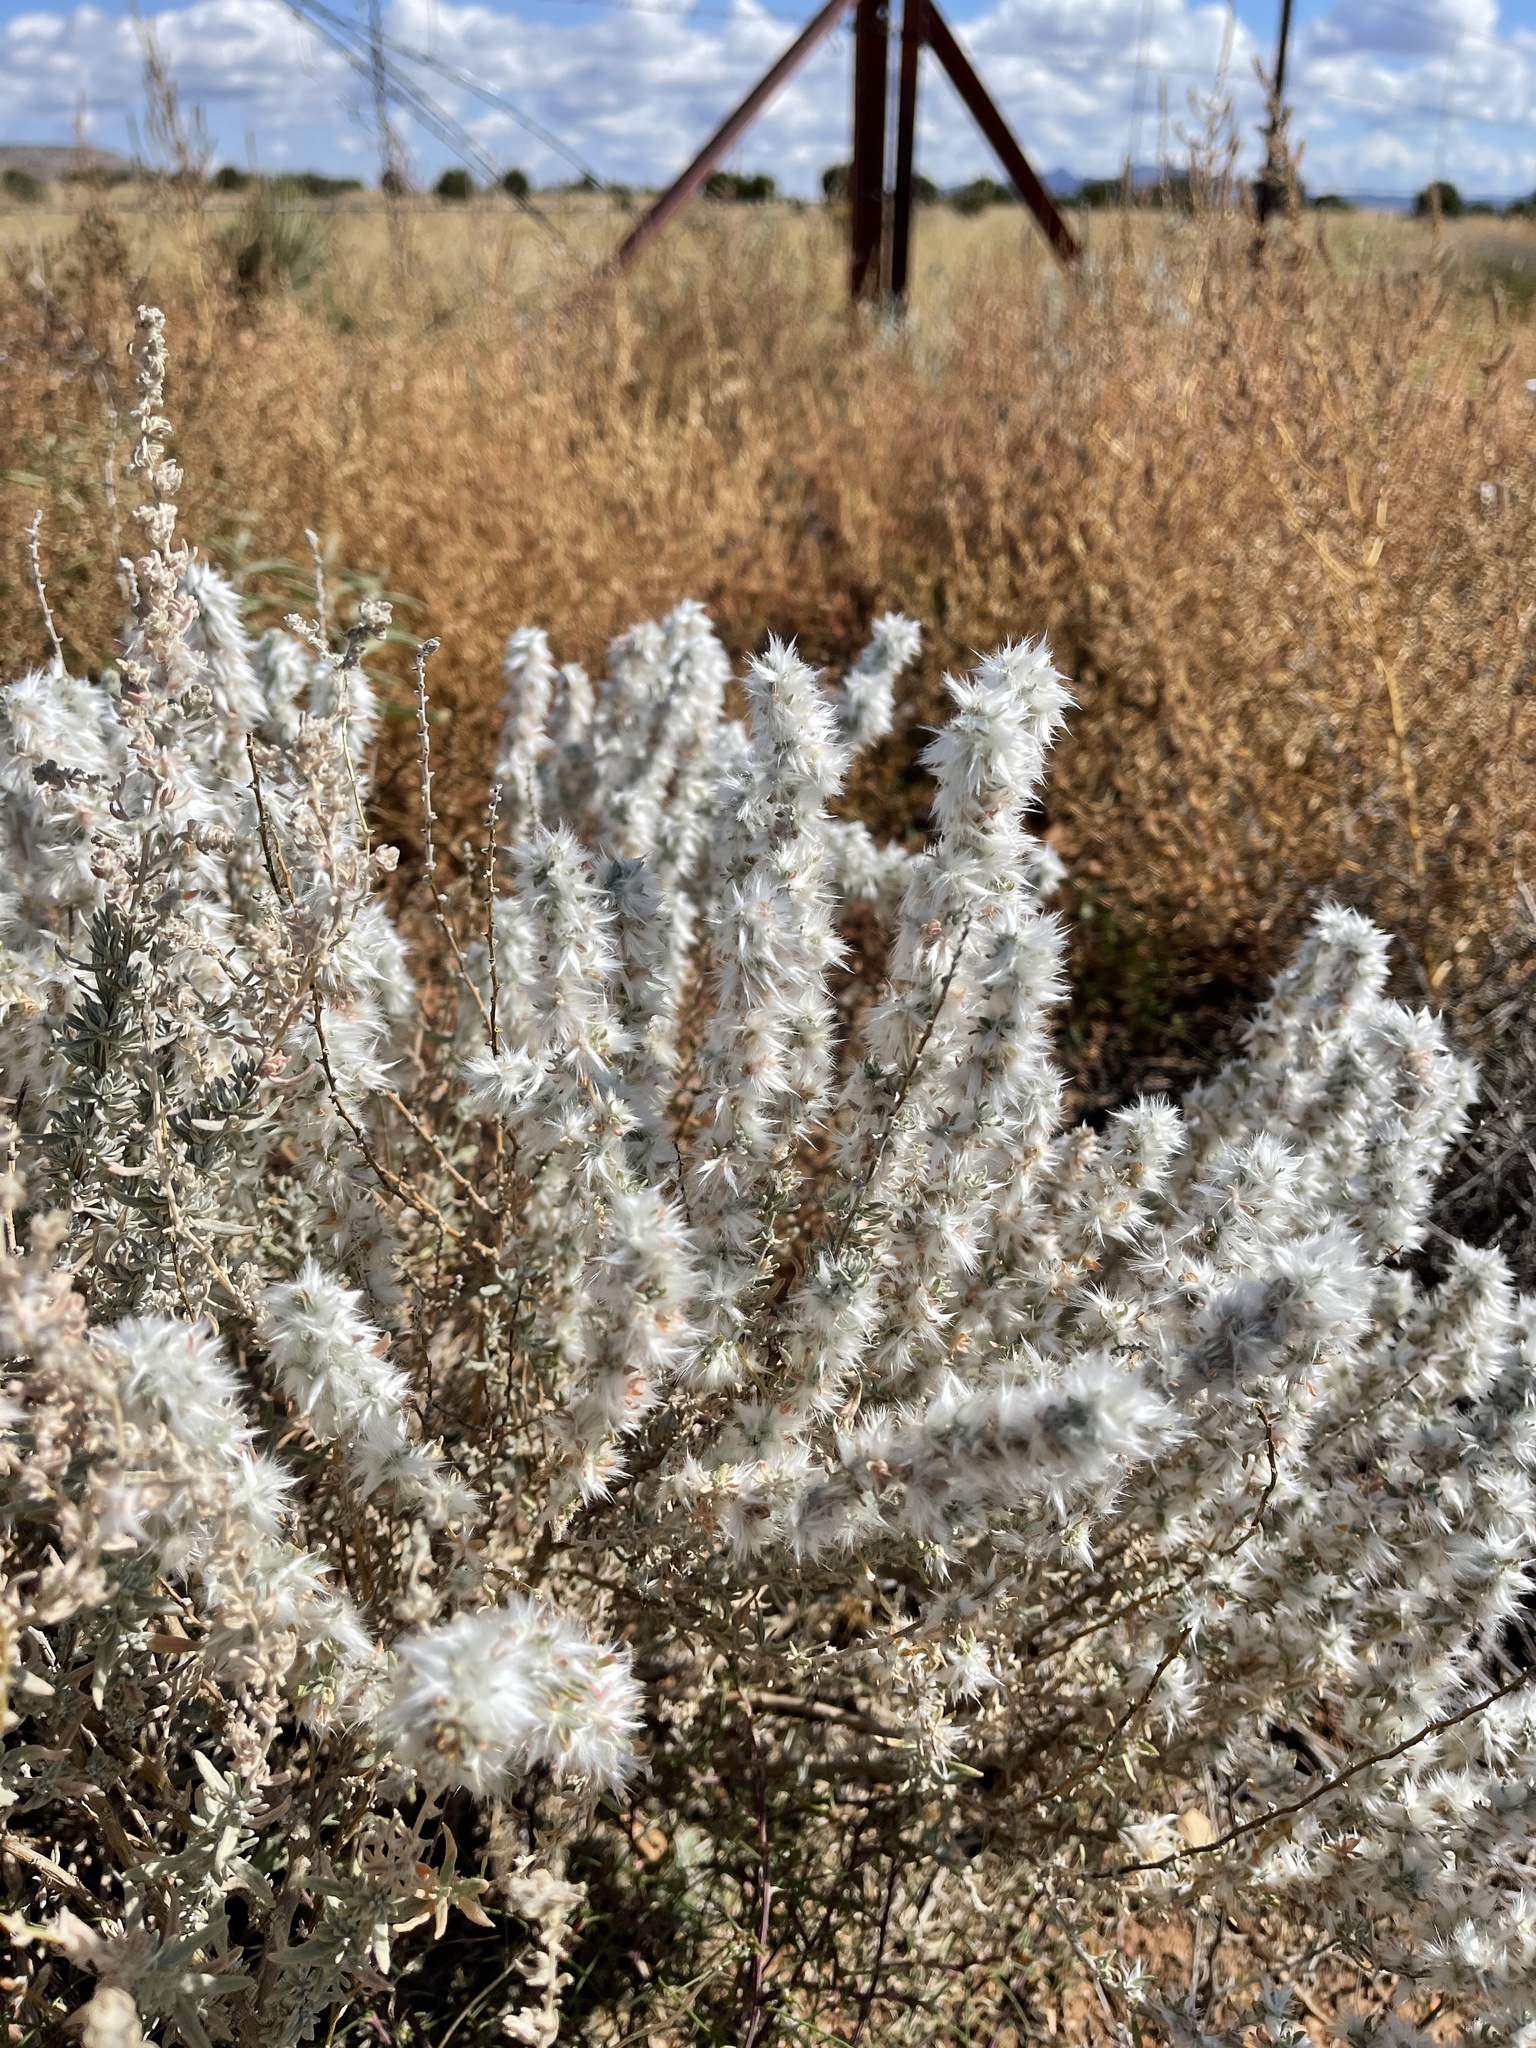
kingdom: Plantae
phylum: Tracheophyta
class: Magnoliopsida
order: Caryophyllales
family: Amaranthaceae
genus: Krascheninnikovia
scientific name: Krascheninnikovia lanata
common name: Winterfat
